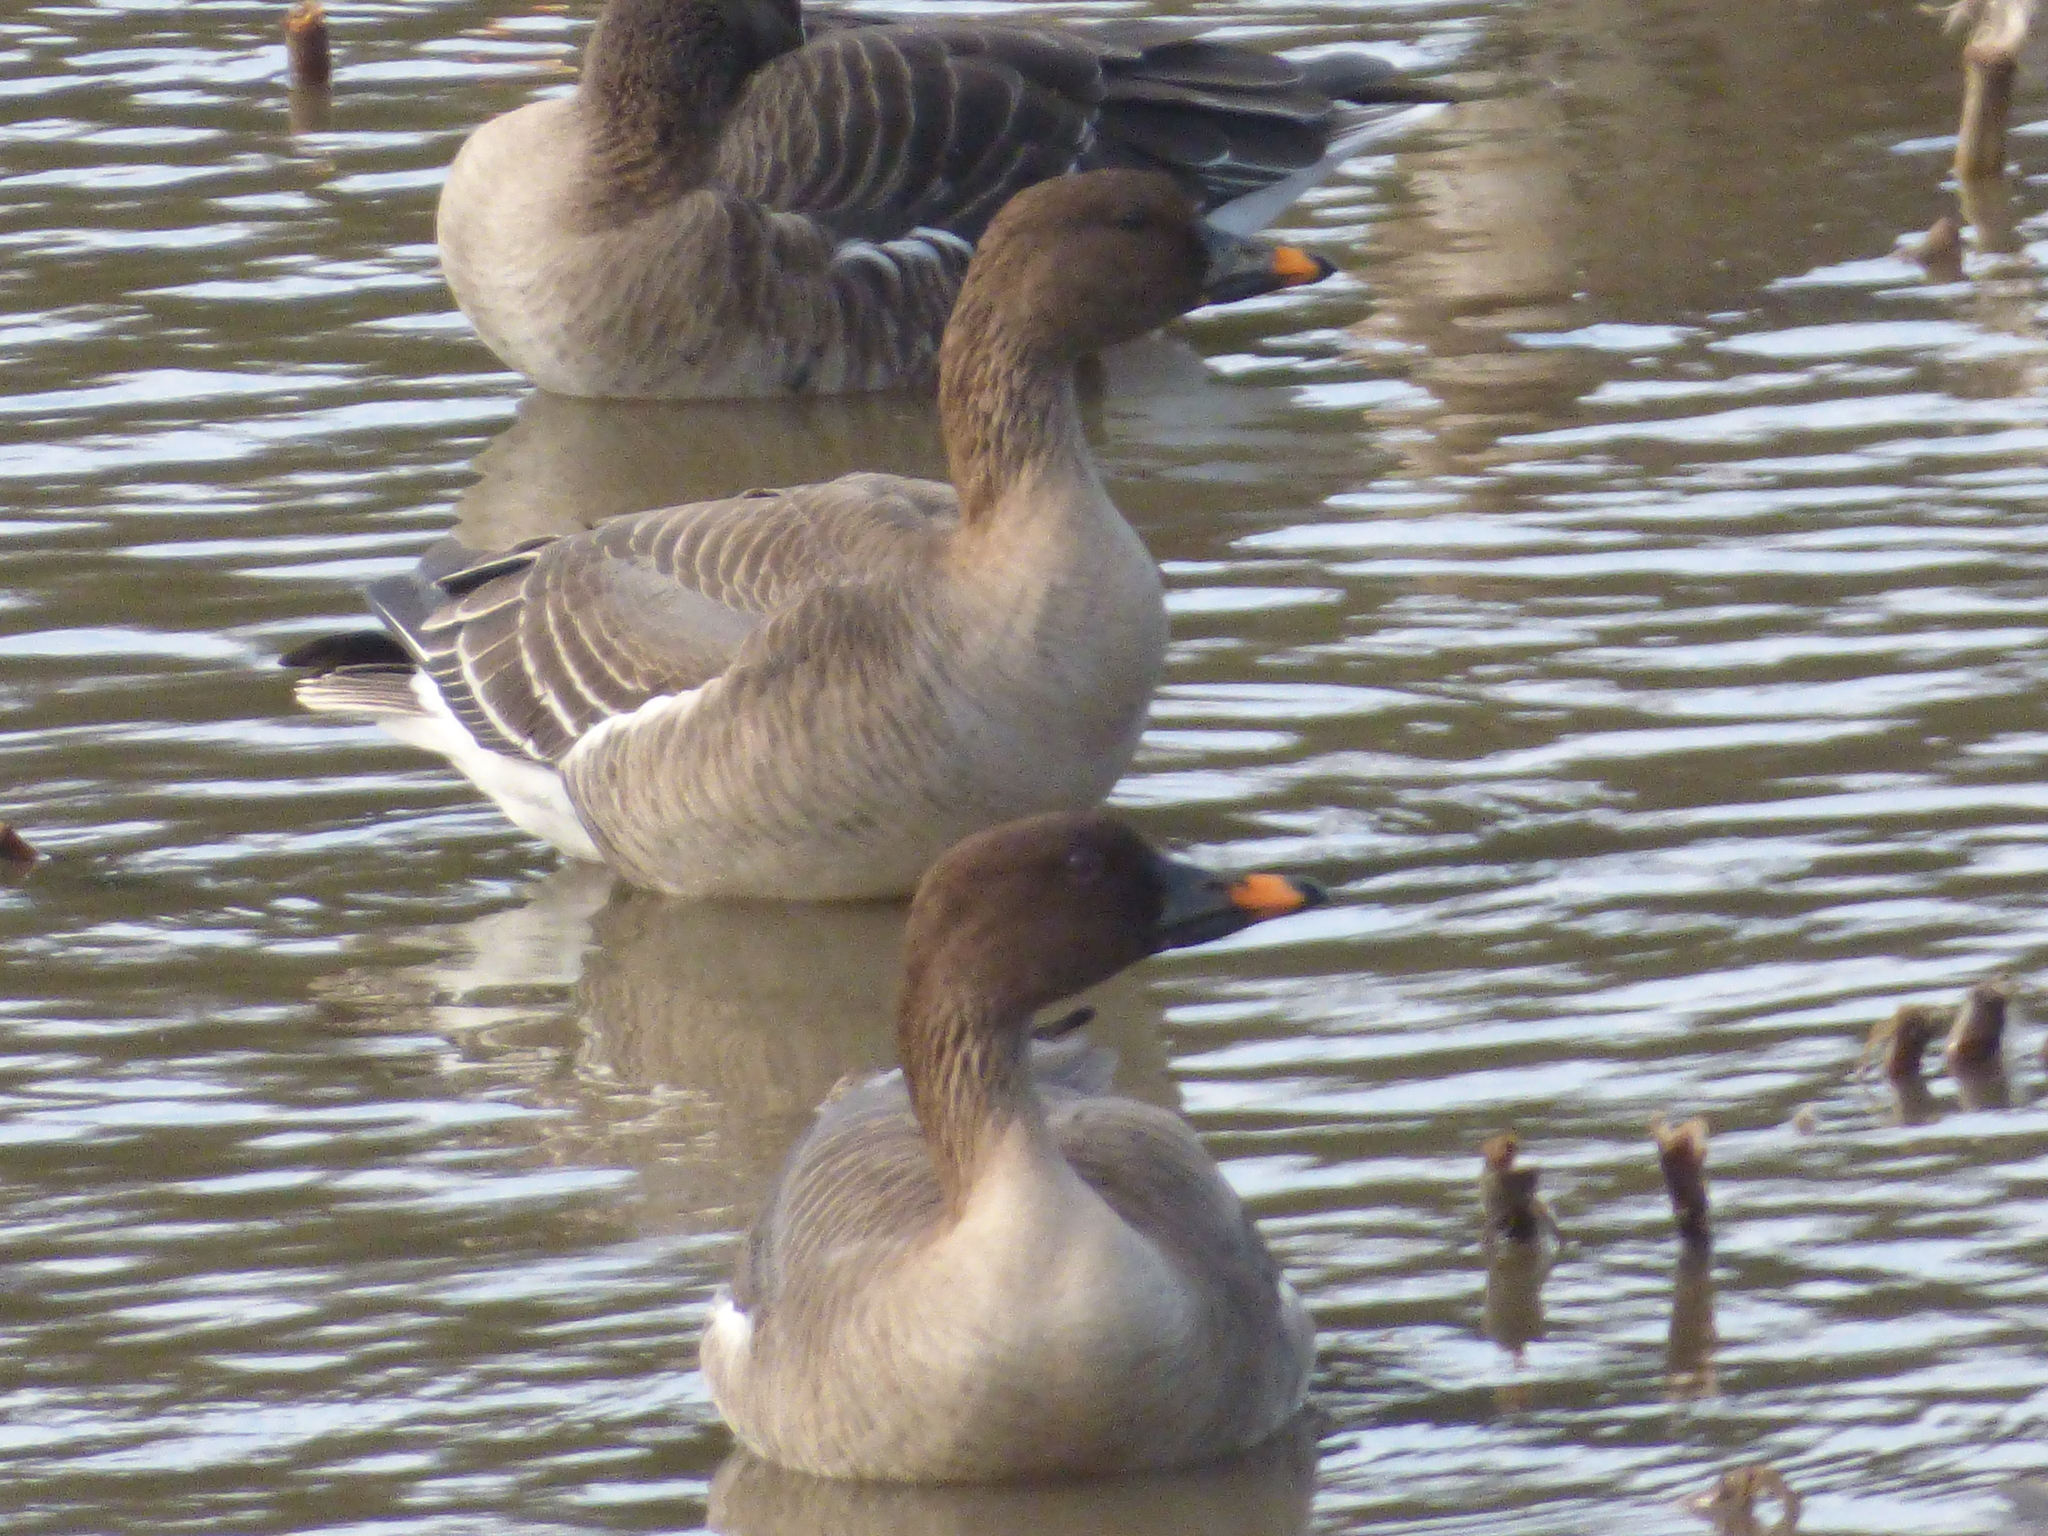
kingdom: Animalia
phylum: Chordata
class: Aves
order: Anseriformes
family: Anatidae
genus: Anser
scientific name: Anser serrirostris
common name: Tundra bean goose
